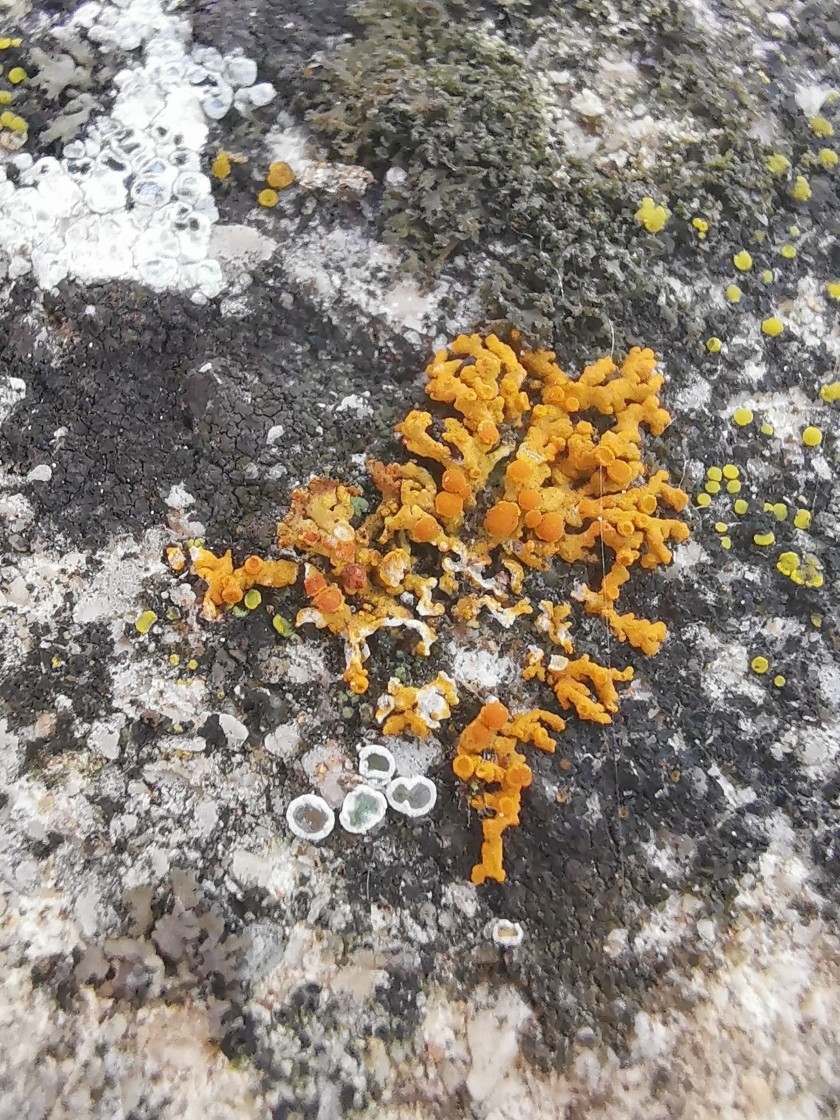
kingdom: Fungi
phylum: Ascomycota
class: Lecanoromycetes
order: Teloschistales
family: Teloschistaceae
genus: Xanthoria
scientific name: Xanthoria elegans
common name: Elegant sunburst lichen
